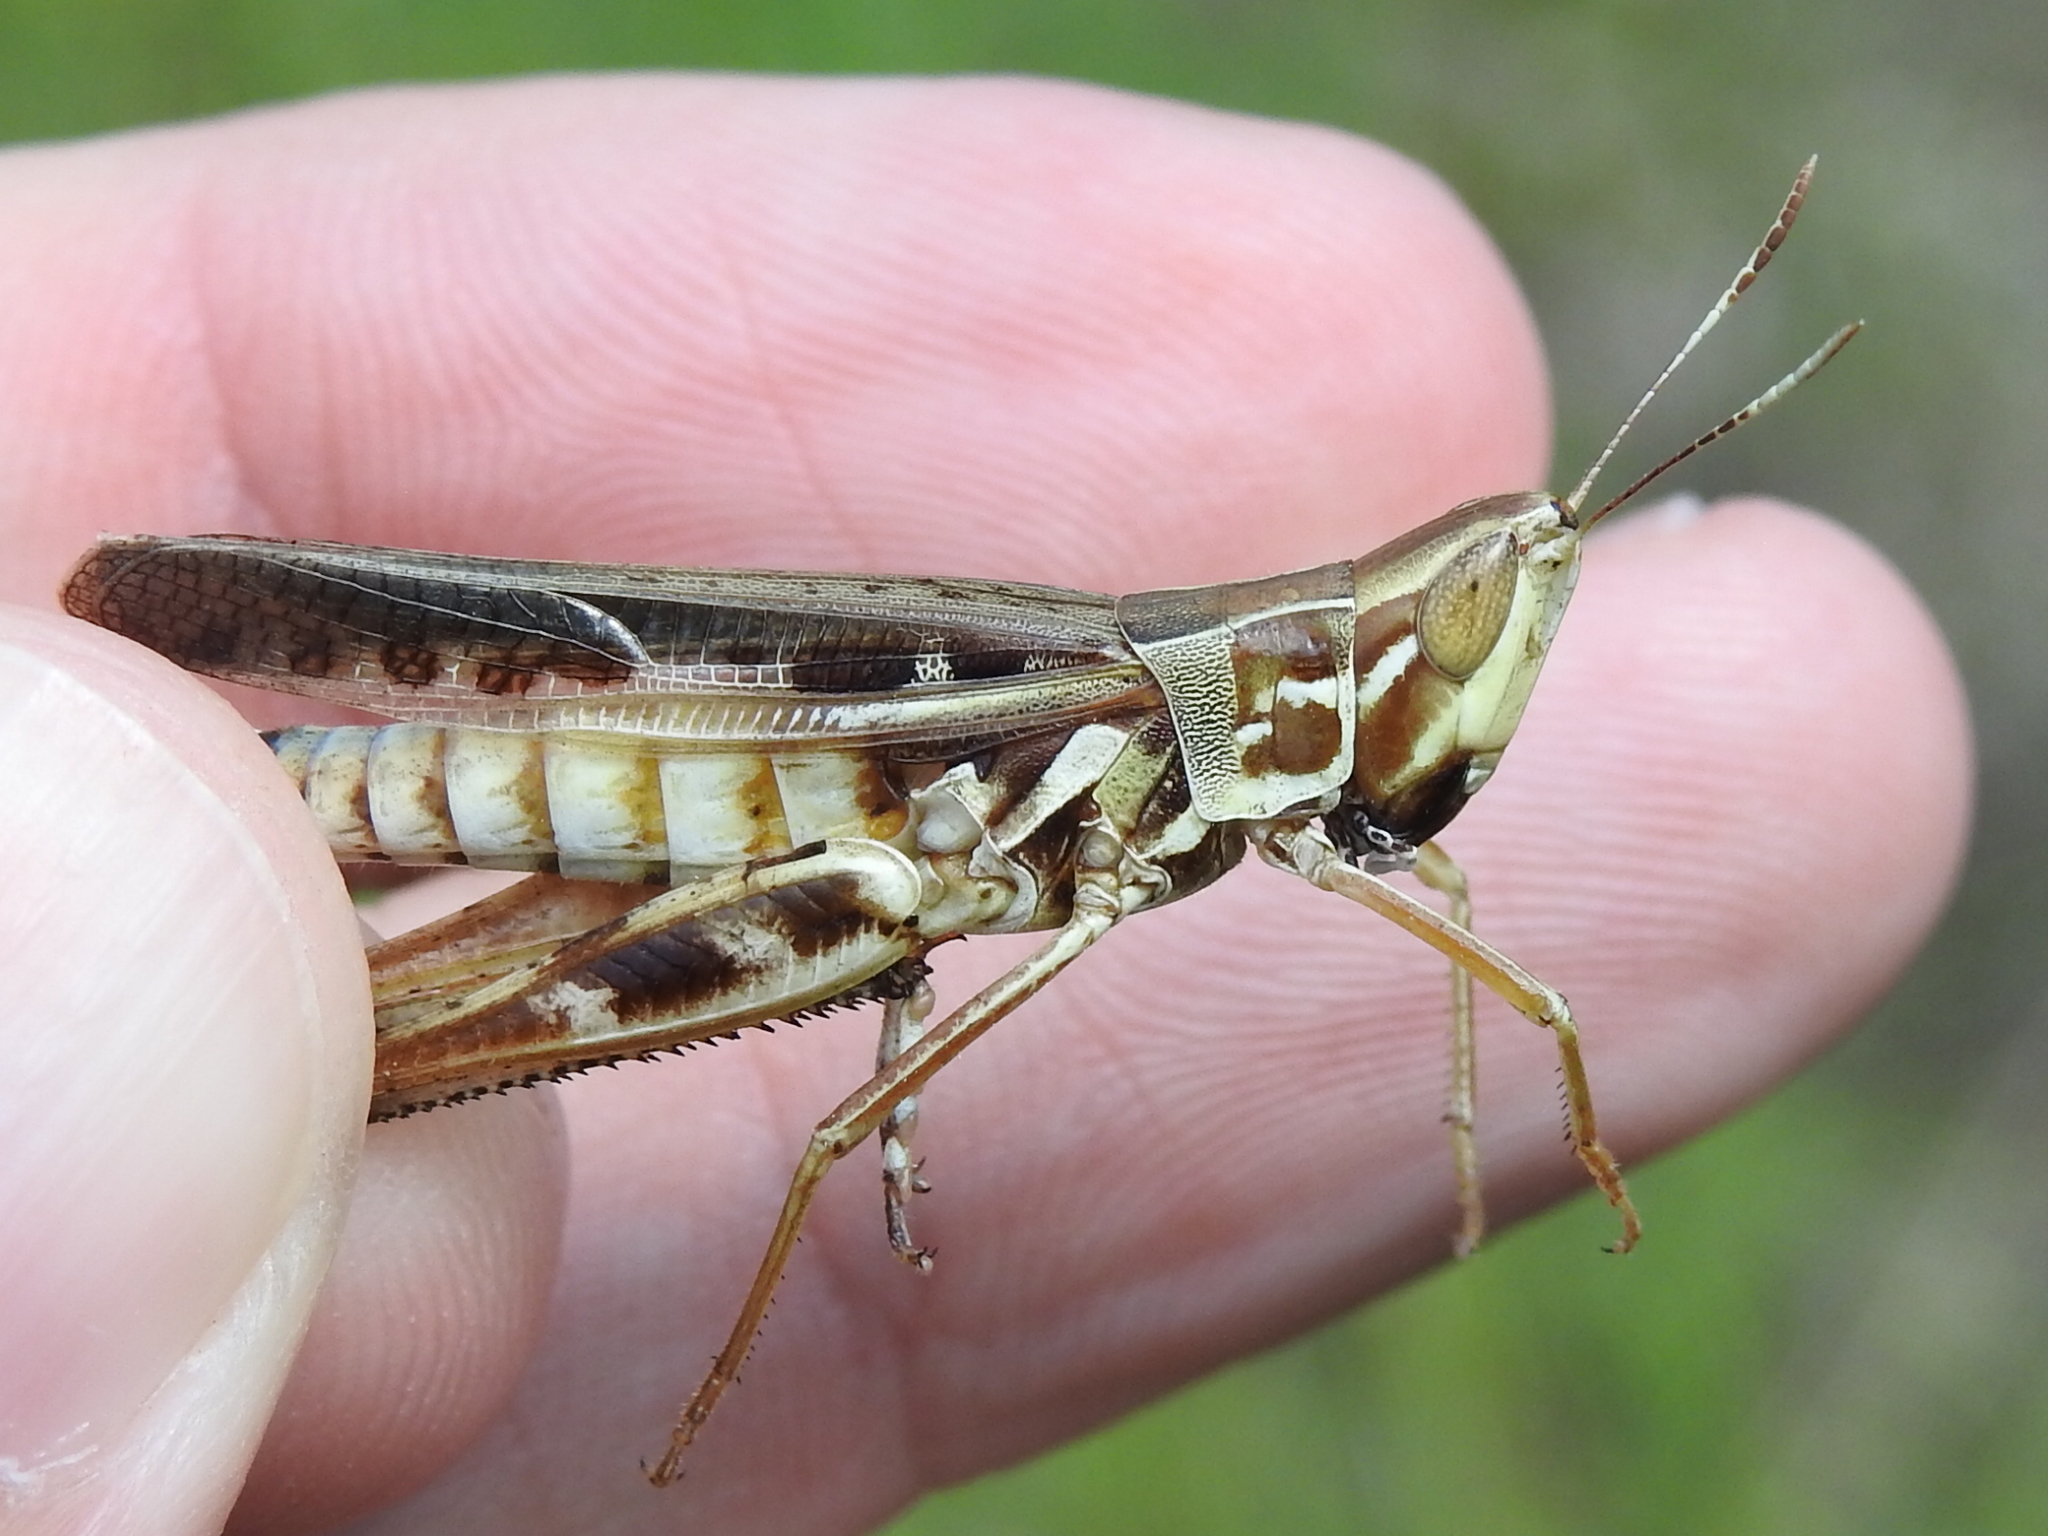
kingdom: Animalia
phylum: Arthropoda
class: Insecta
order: Orthoptera
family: Acrididae
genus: Syrbula
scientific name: Syrbula admirabilis
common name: Handsome grasshopper
